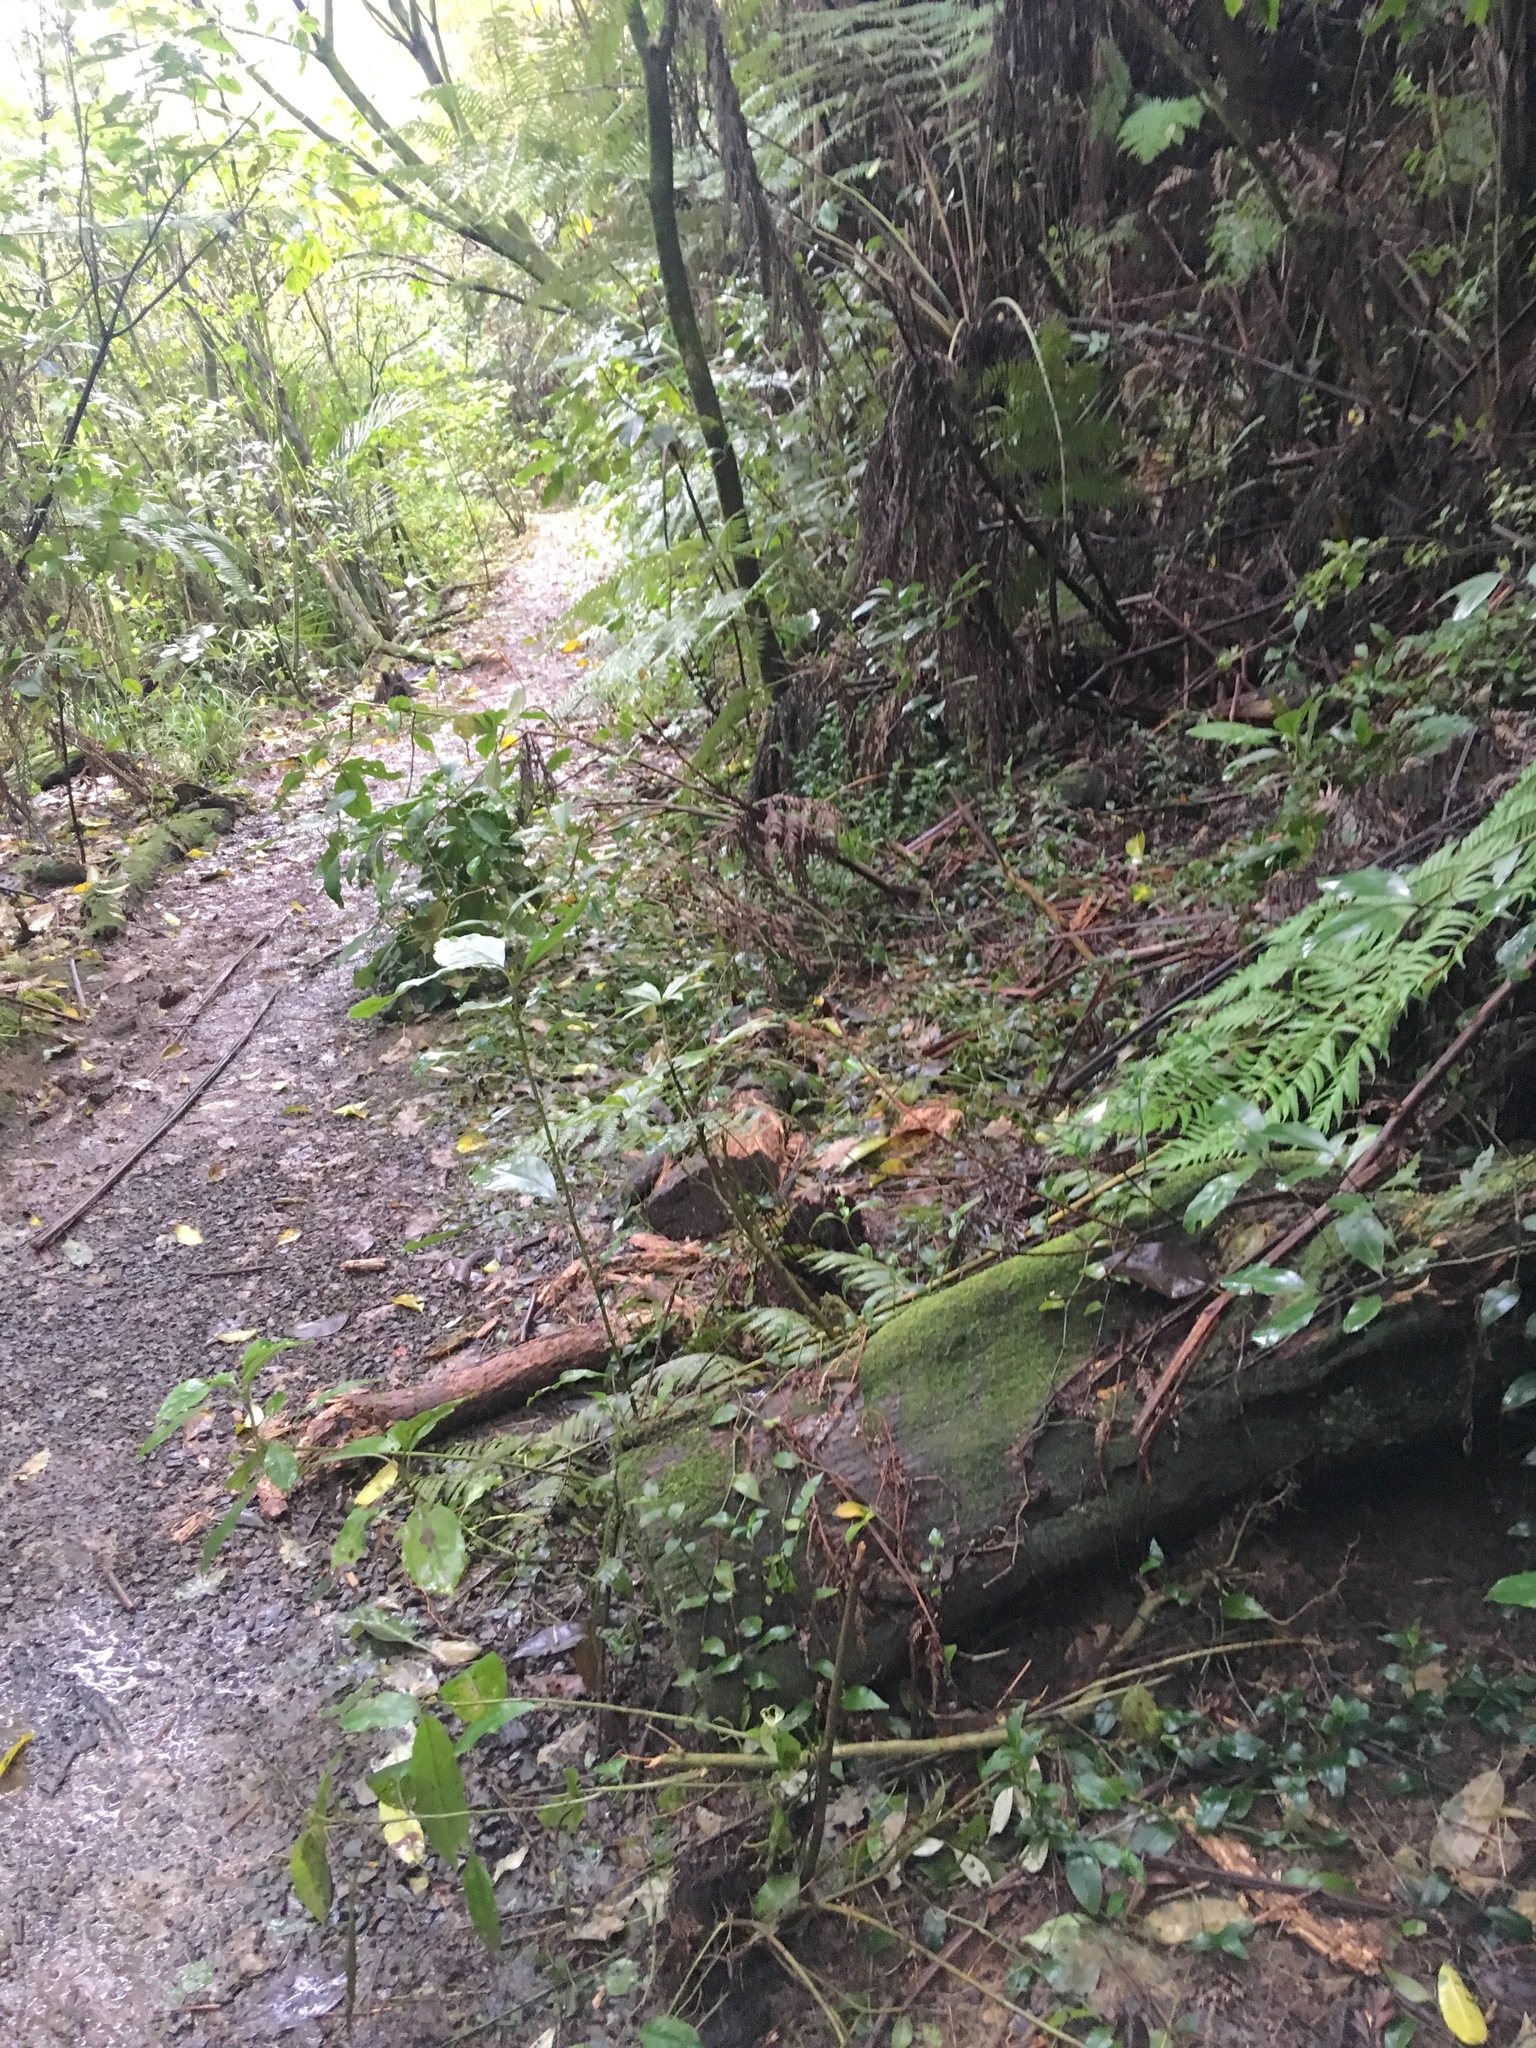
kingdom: Plantae
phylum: Tracheophyta
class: Liliopsida
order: Commelinales
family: Commelinaceae
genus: Tradescantia
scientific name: Tradescantia fluminensis
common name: Wandering-jew
